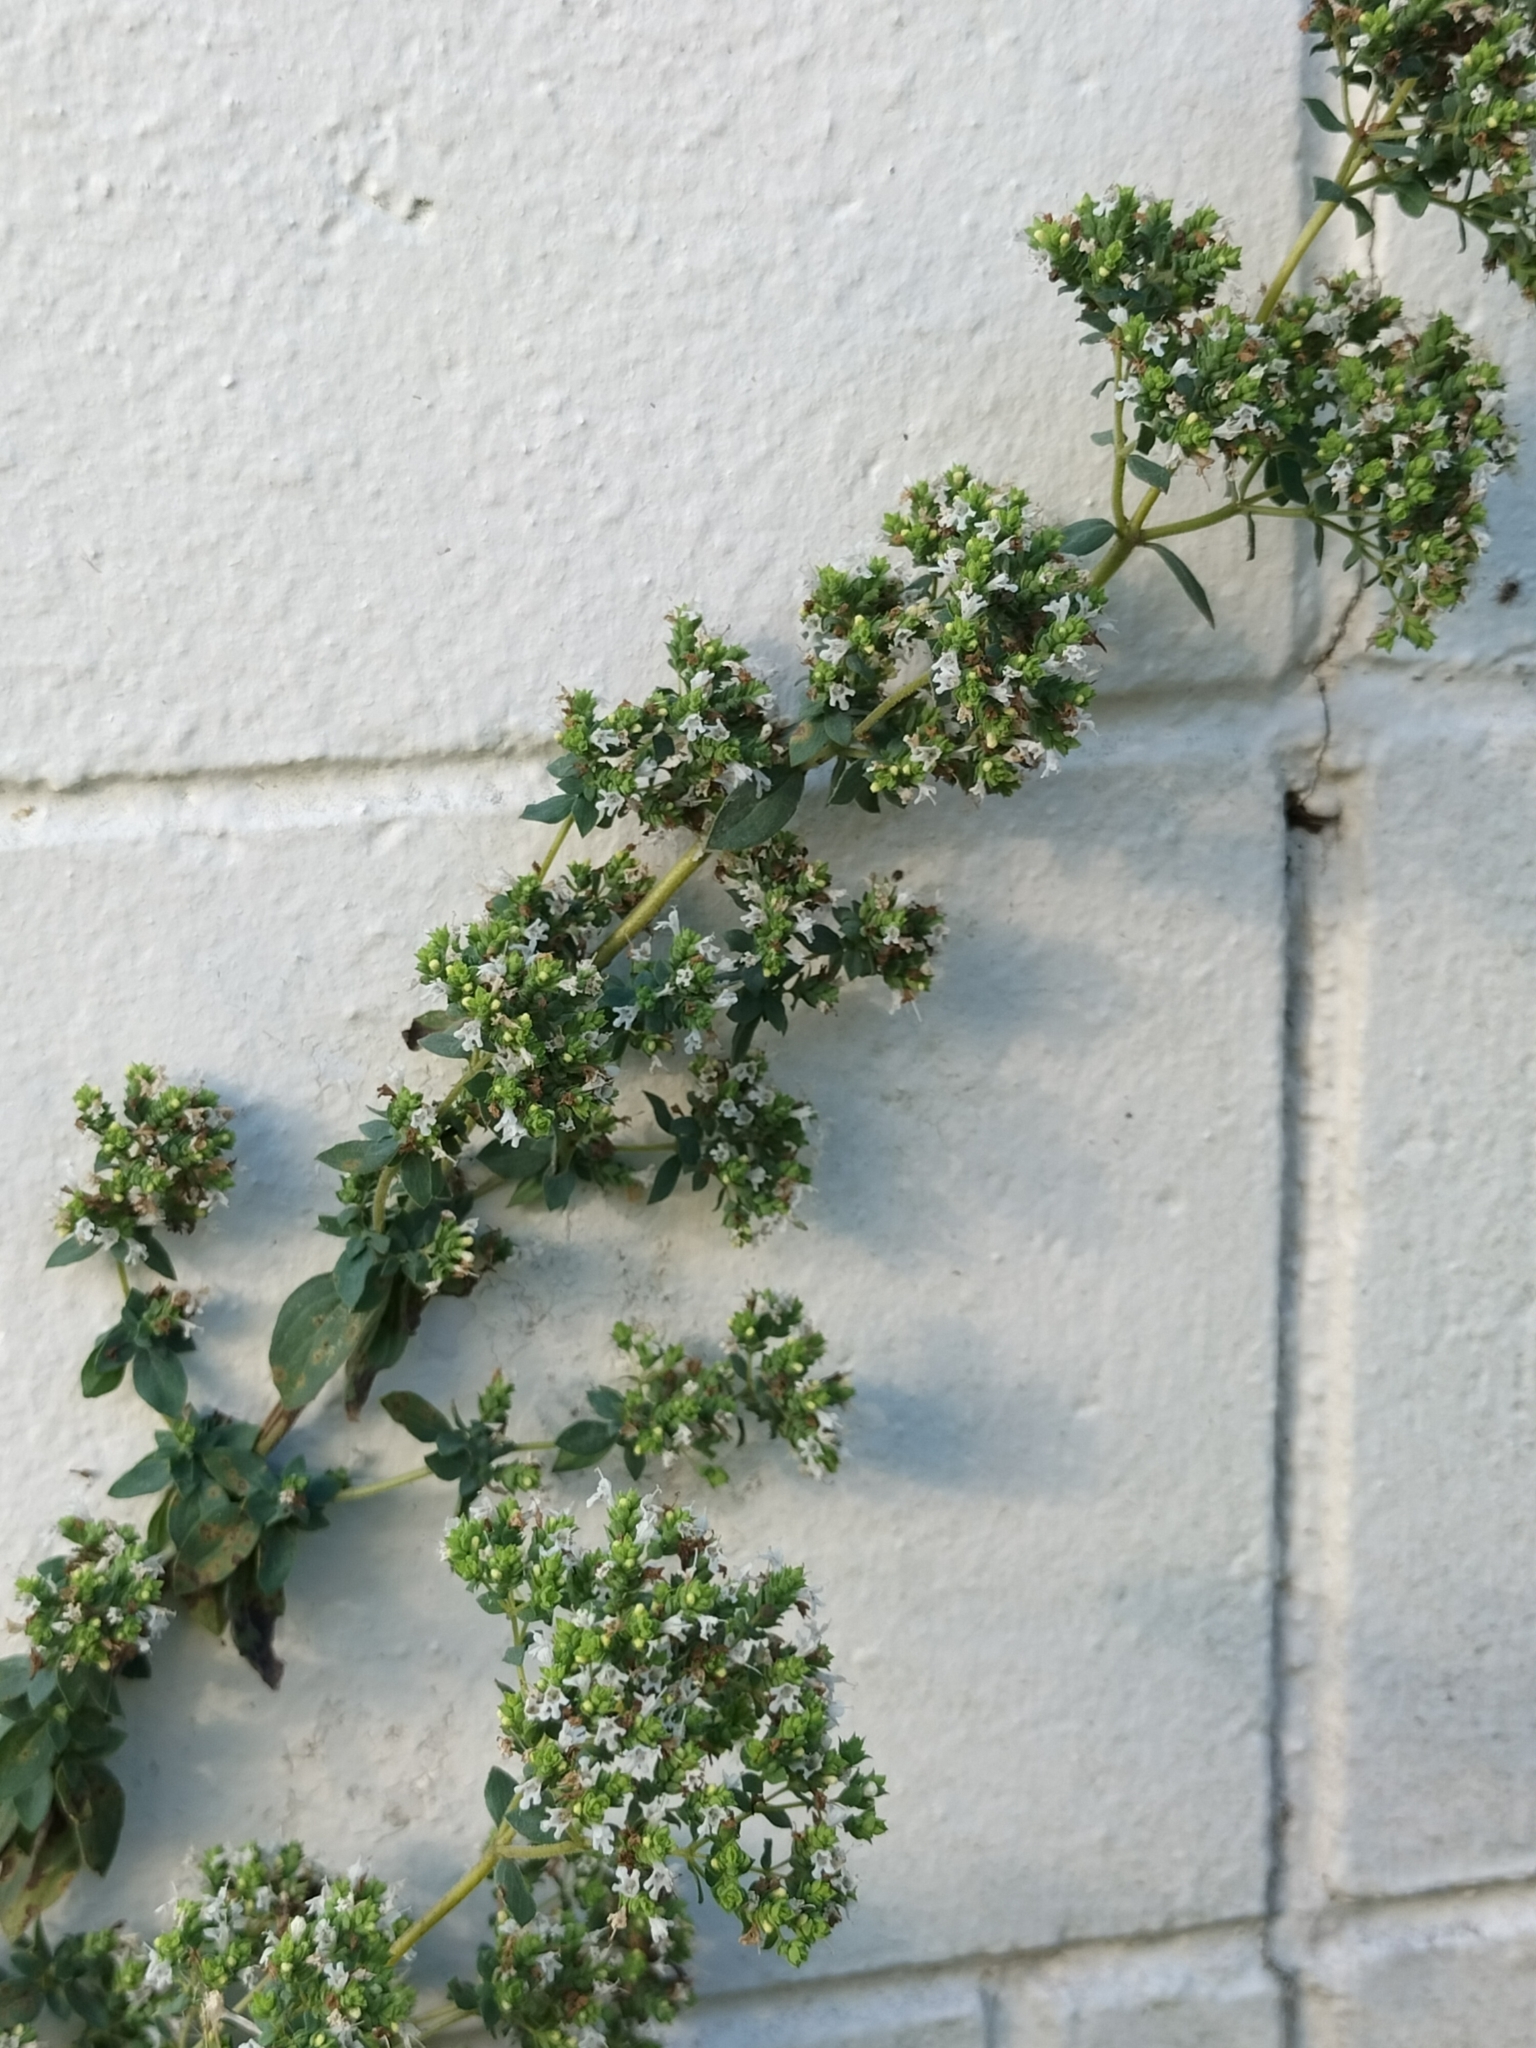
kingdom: Plantae
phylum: Tracheophyta
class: Magnoliopsida
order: Lamiales
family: Lamiaceae
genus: Thymus
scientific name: Thymus vulgaris
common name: Garden thyme
